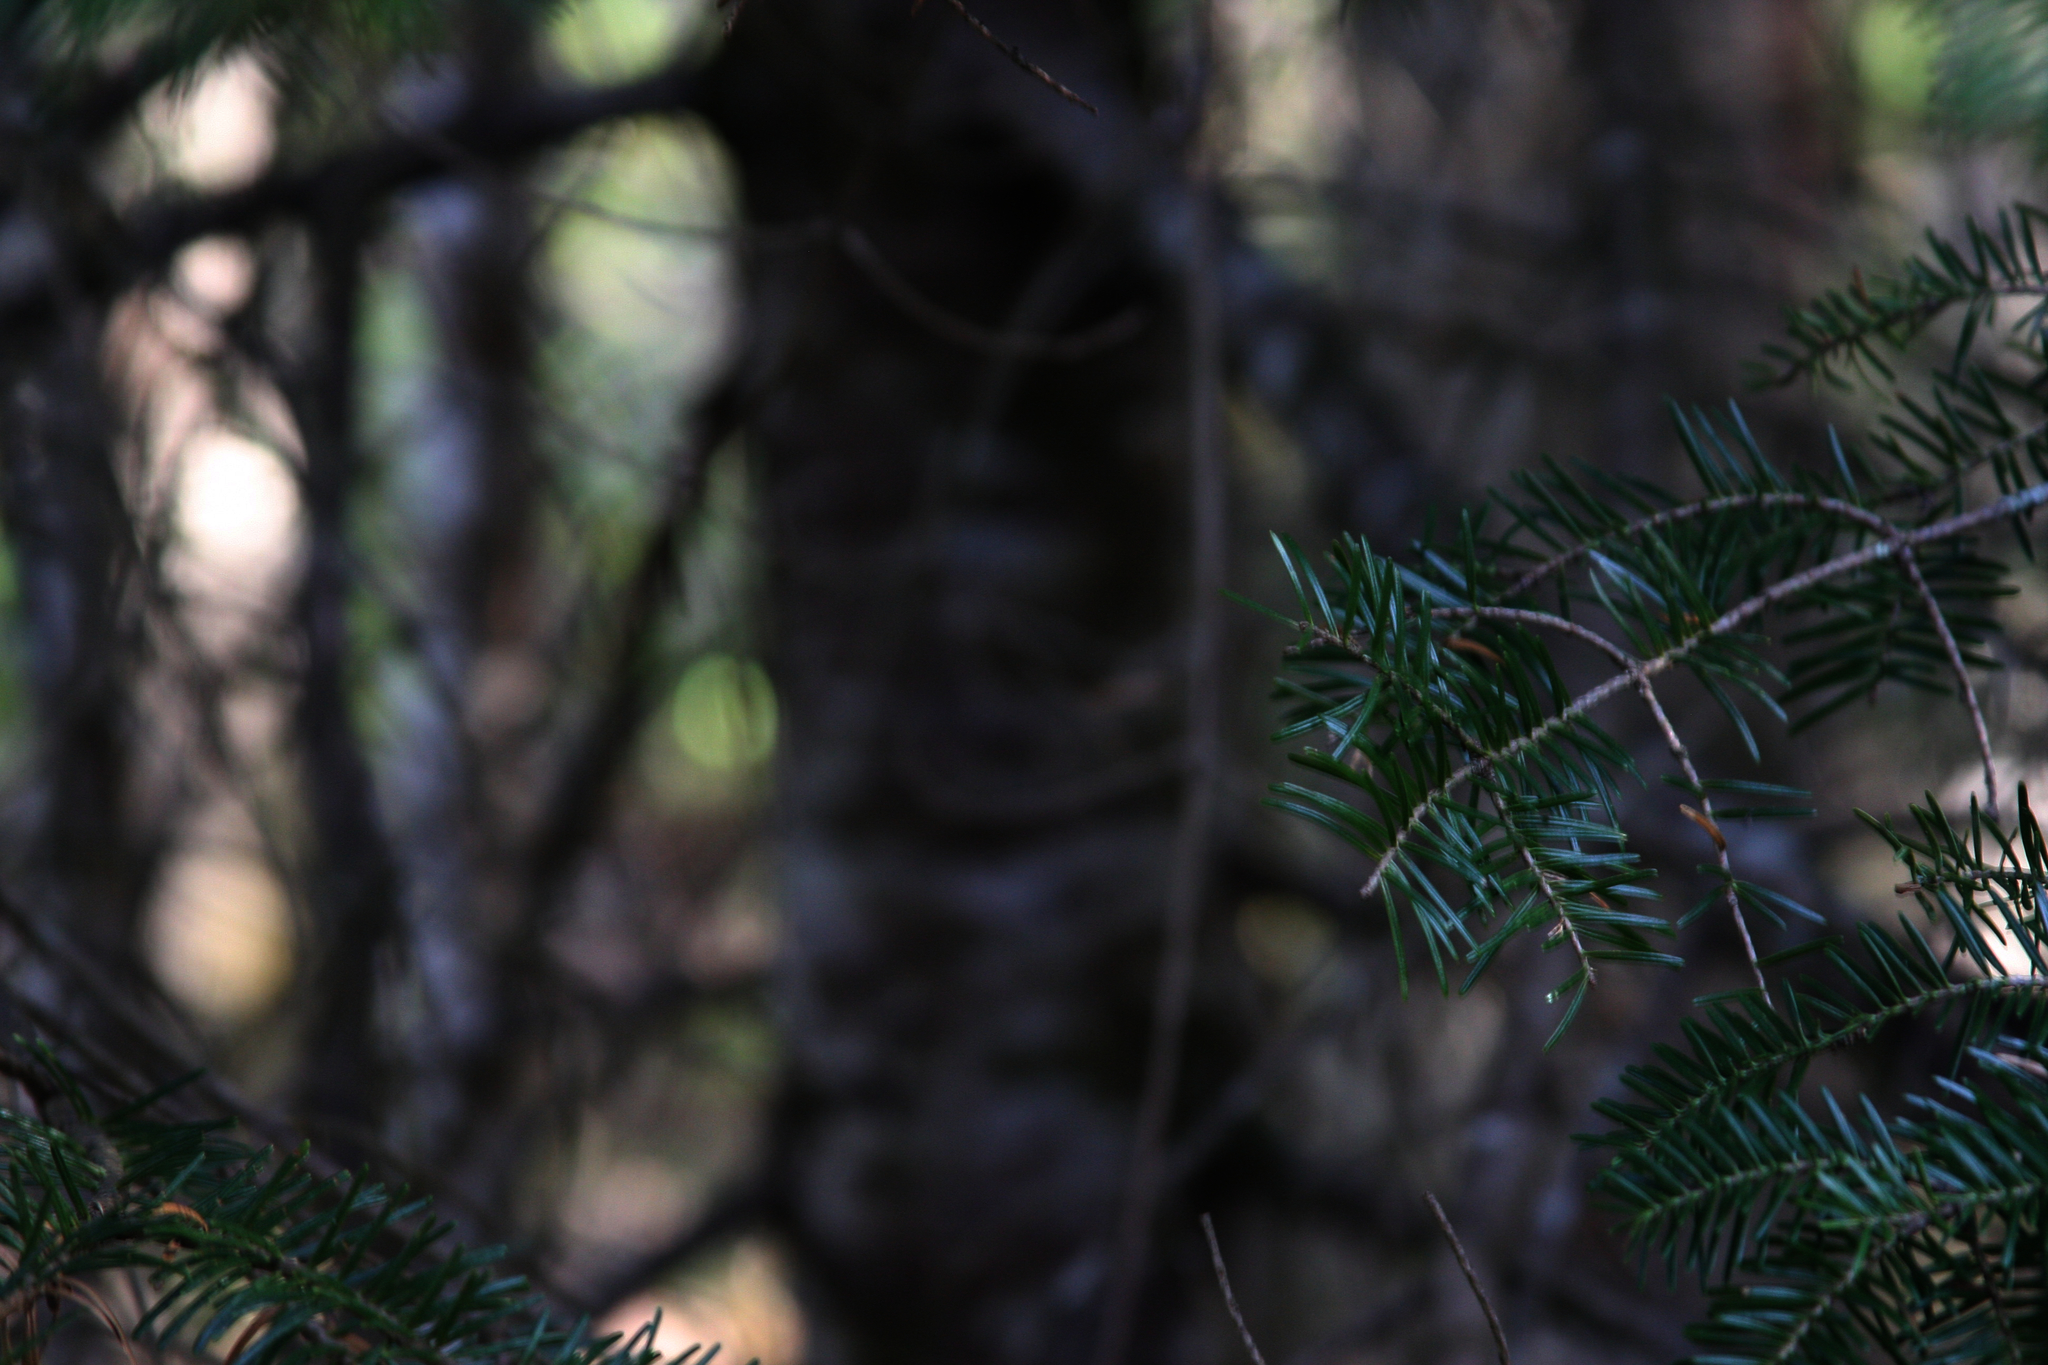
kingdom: Plantae
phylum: Tracheophyta
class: Pinopsida
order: Pinales
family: Pinaceae
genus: Abies
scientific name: Abies balsamea
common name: Balsam fir
